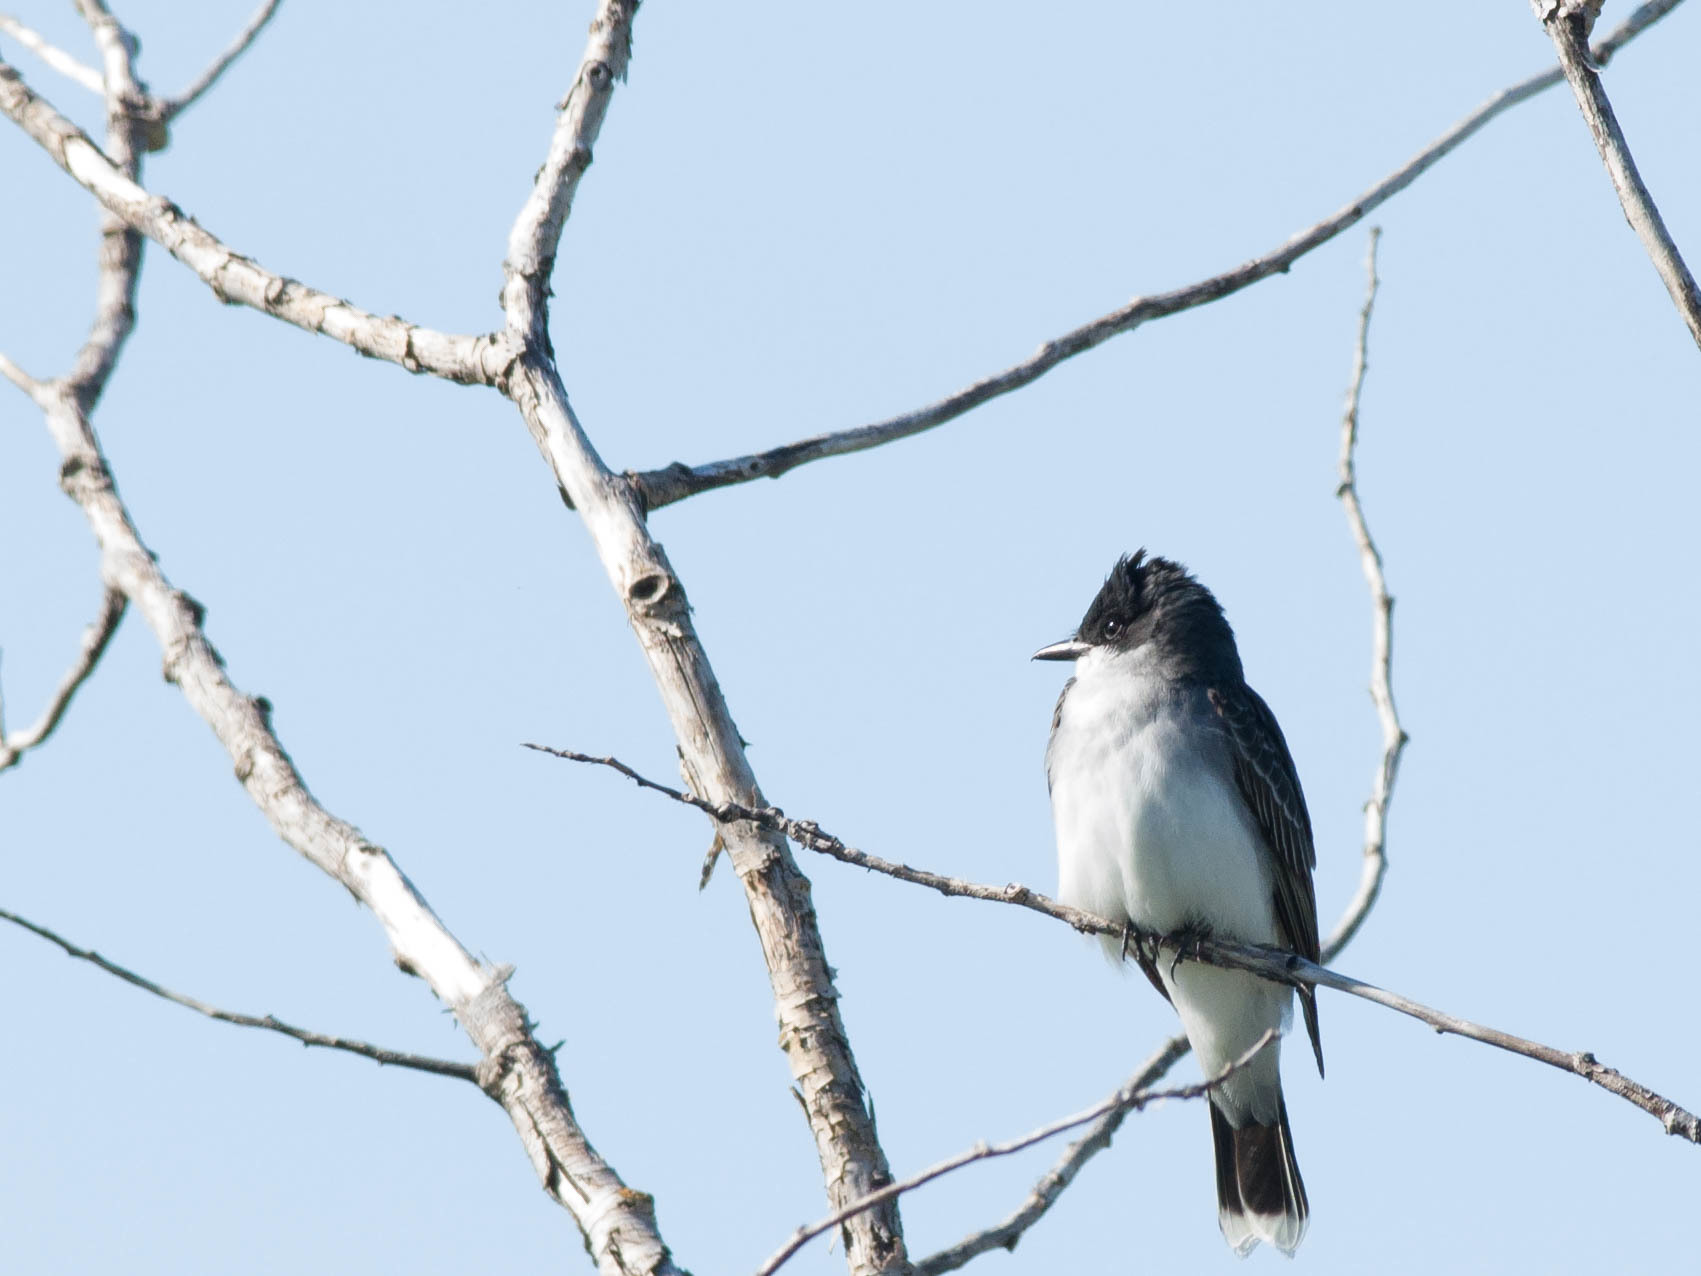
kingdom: Animalia
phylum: Chordata
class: Aves
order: Passeriformes
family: Tyrannidae
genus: Tyrannus
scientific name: Tyrannus tyrannus
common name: Eastern kingbird
